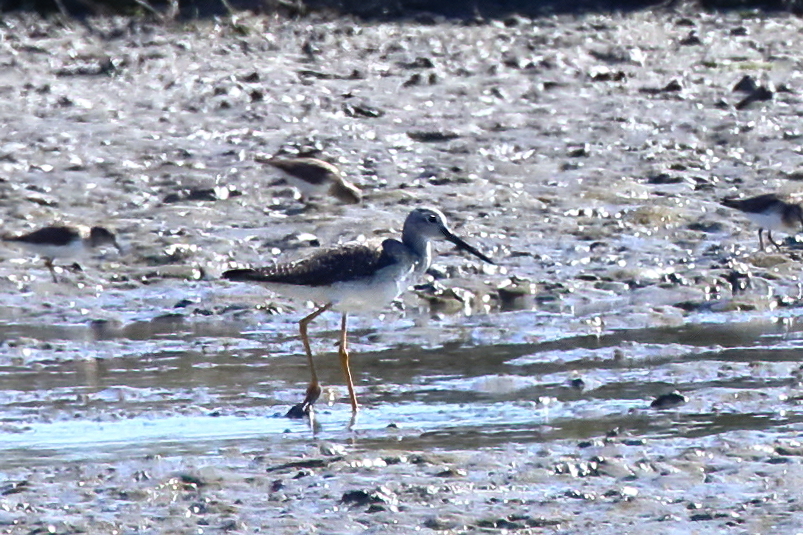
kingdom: Animalia
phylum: Chordata
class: Aves
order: Charadriiformes
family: Scolopacidae
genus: Tringa
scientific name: Tringa melanoleuca
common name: Greater yellowlegs
